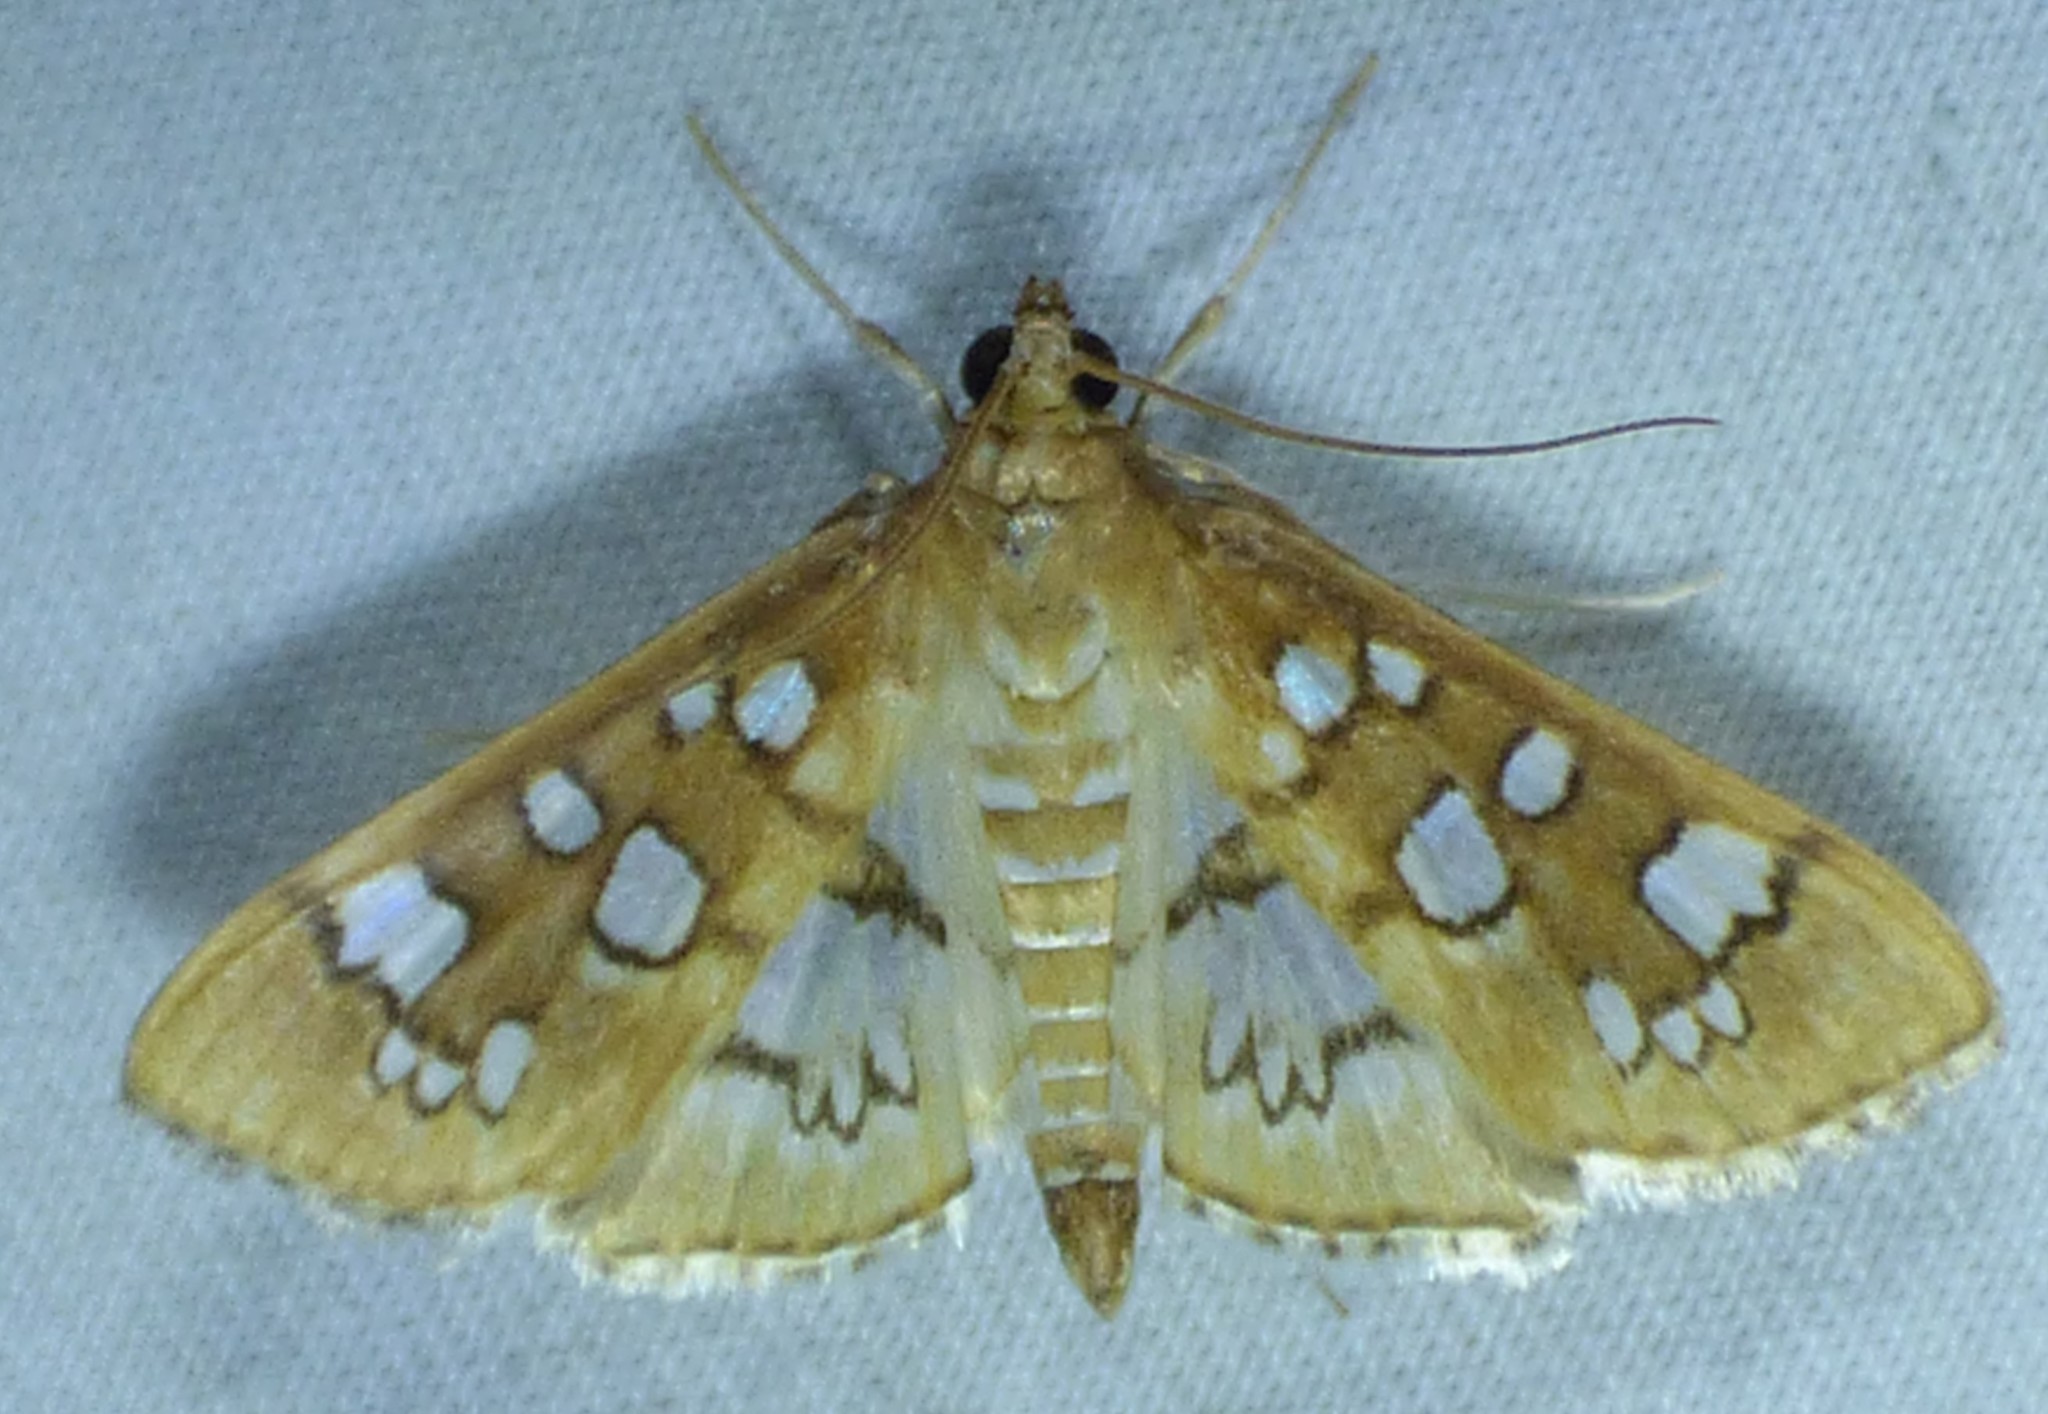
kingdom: Animalia
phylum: Arthropoda
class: Insecta
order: Lepidoptera
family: Crambidae
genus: Samea
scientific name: Samea baccatalis
